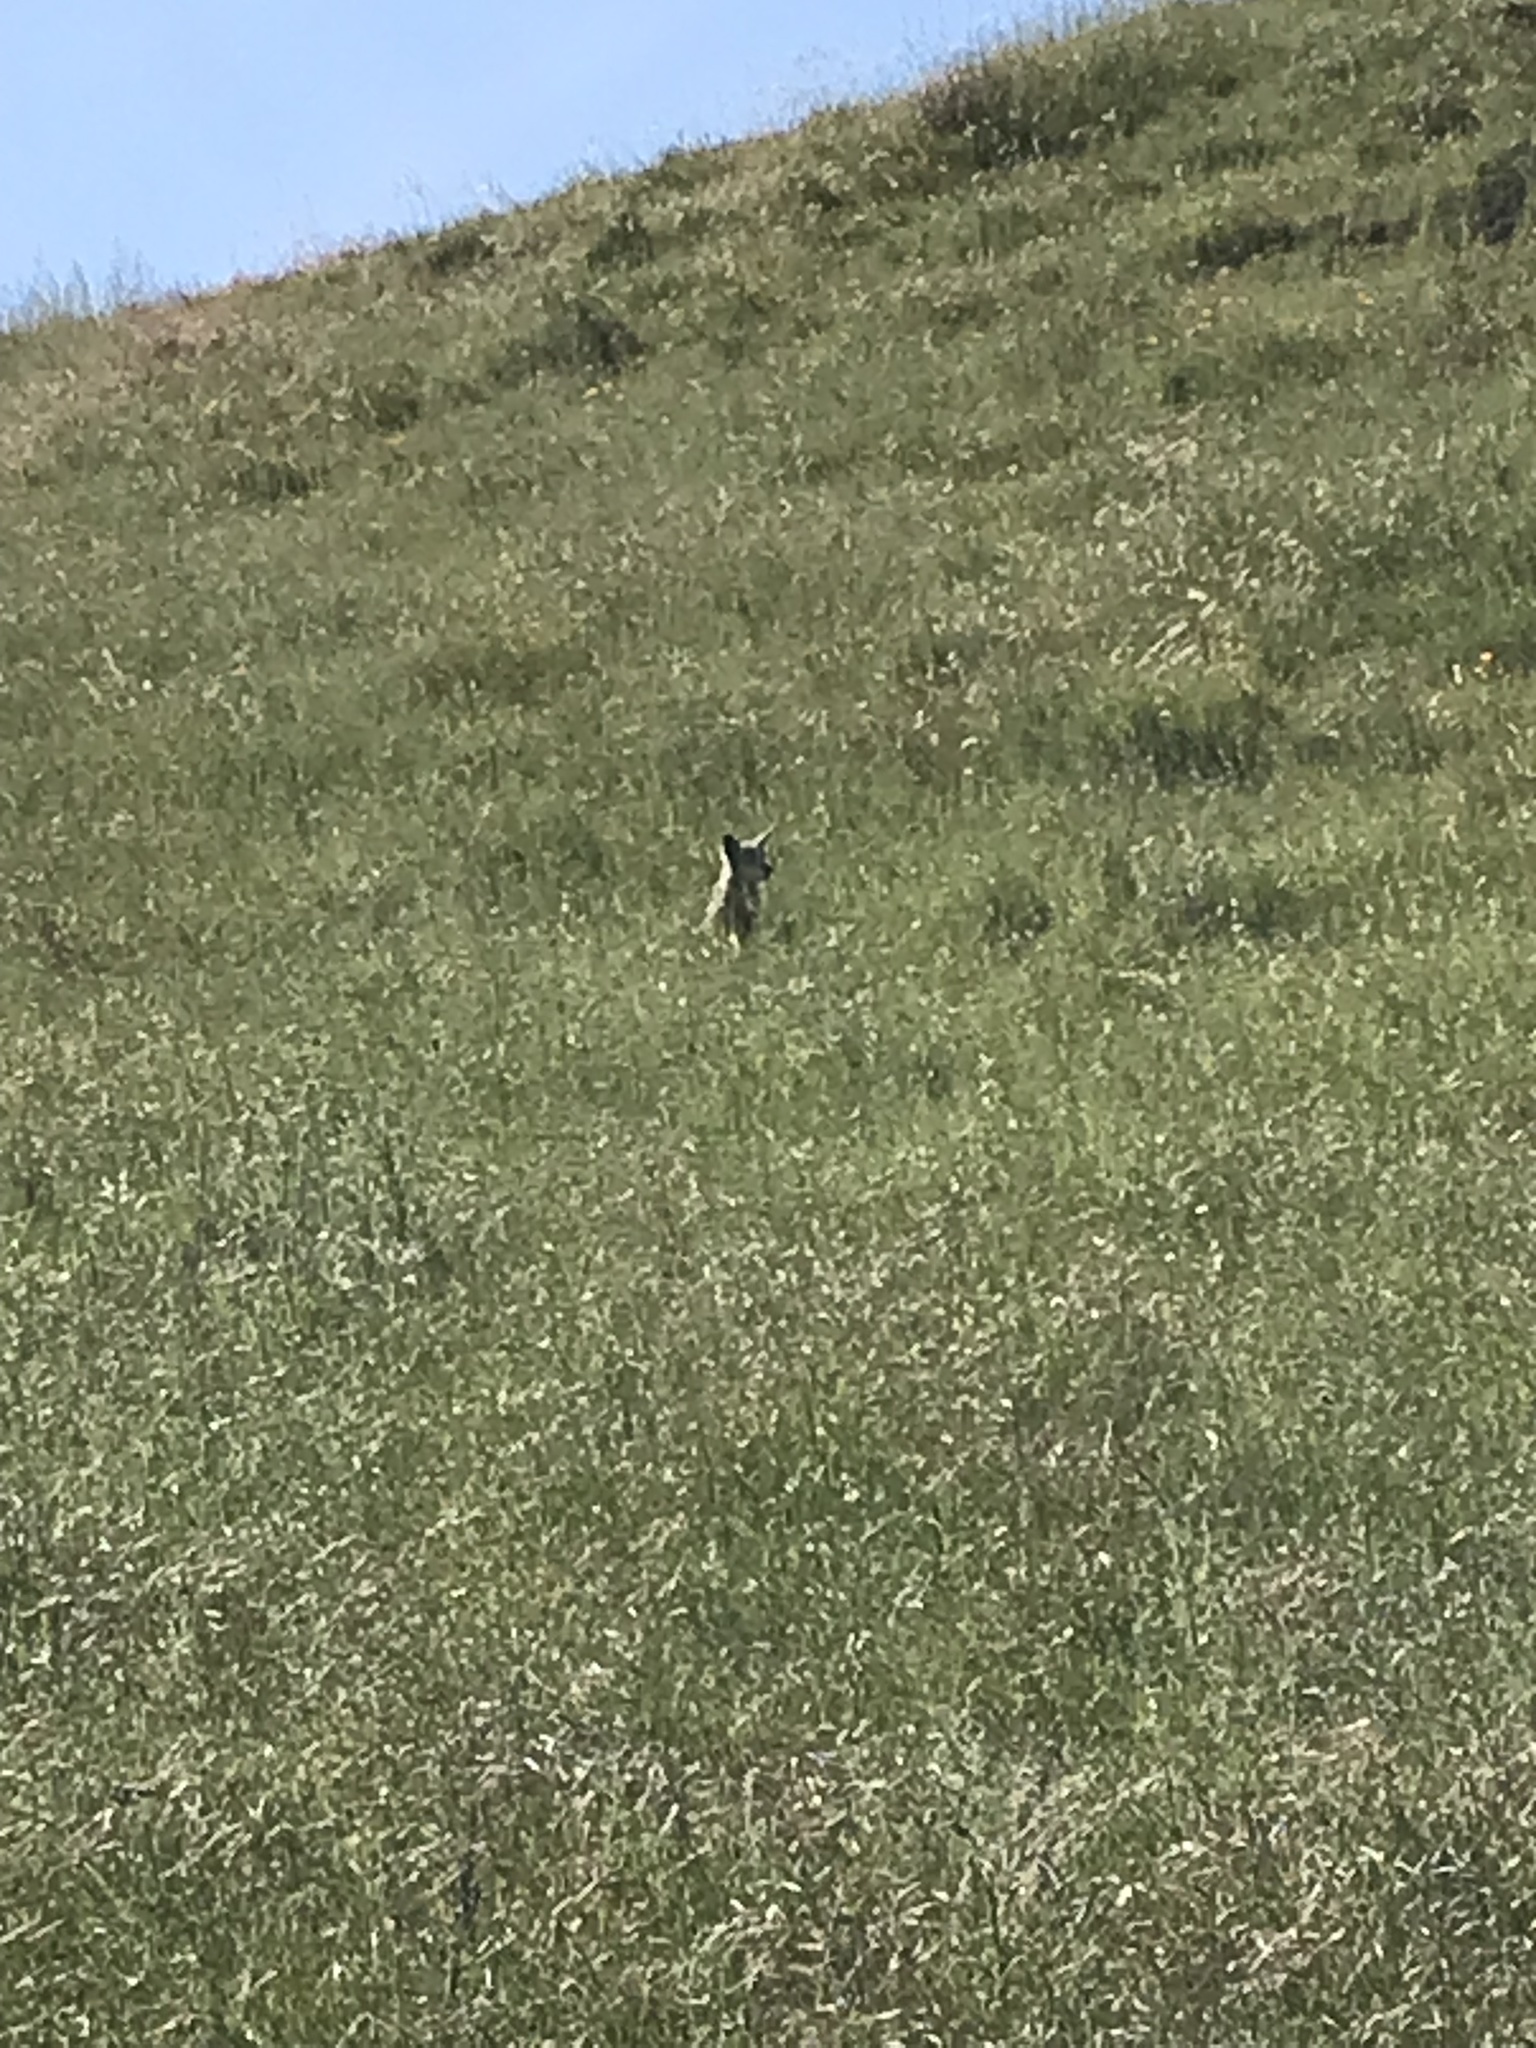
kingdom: Animalia
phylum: Chordata
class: Mammalia
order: Carnivora
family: Canidae
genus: Canis
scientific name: Canis latrans
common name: Coyote
